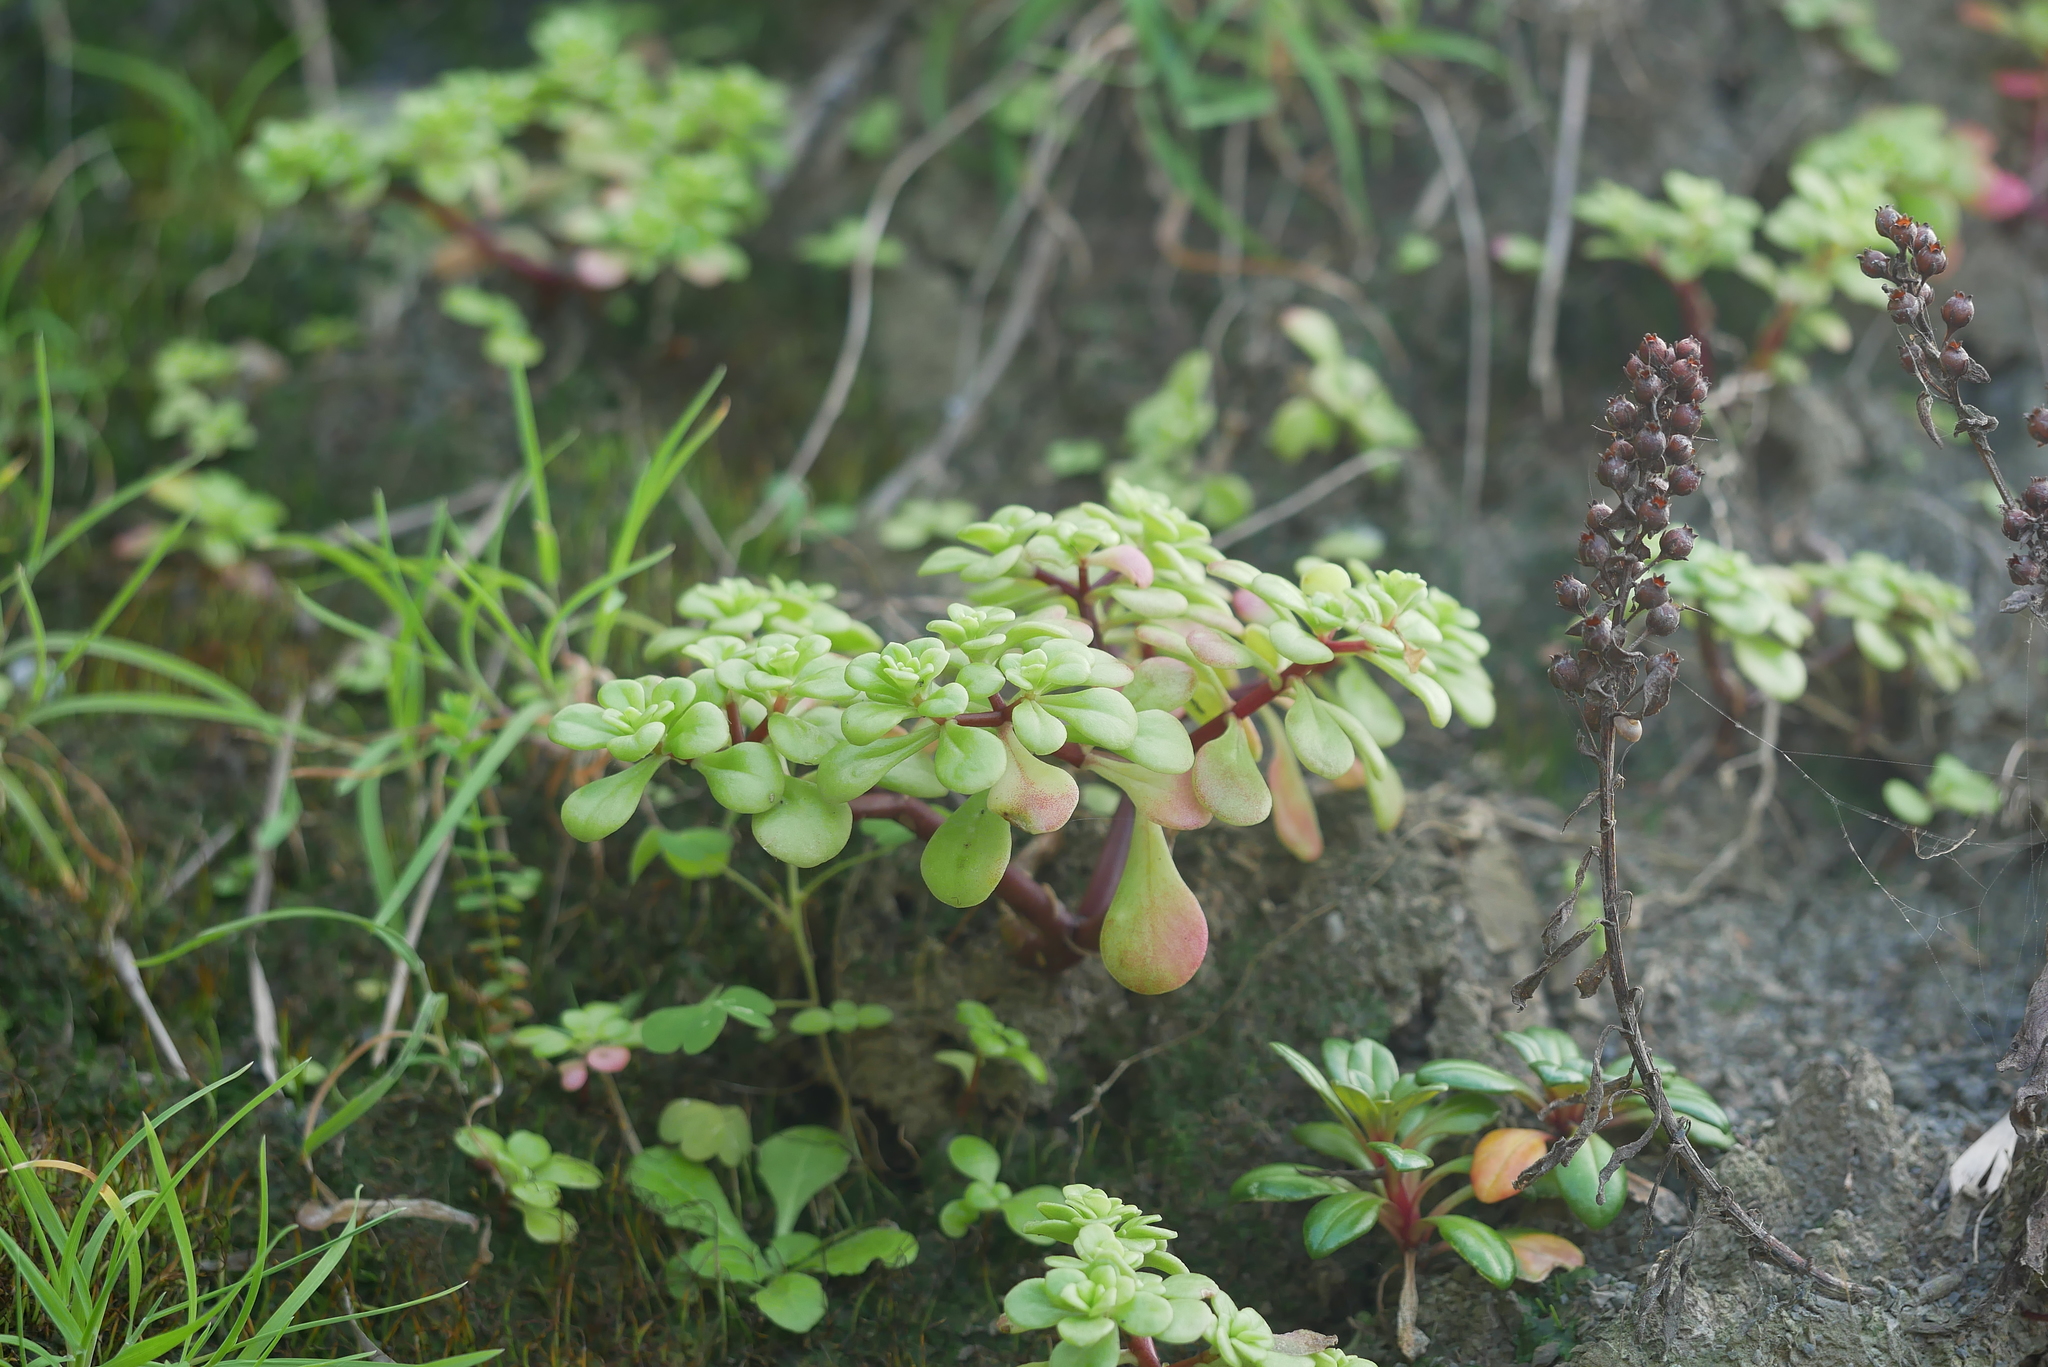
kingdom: Plantae
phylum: Tracheophyta
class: Magnoliopsida
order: Saxifragales
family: Crassulaceae
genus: Sedum
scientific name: Sedum formosanum
